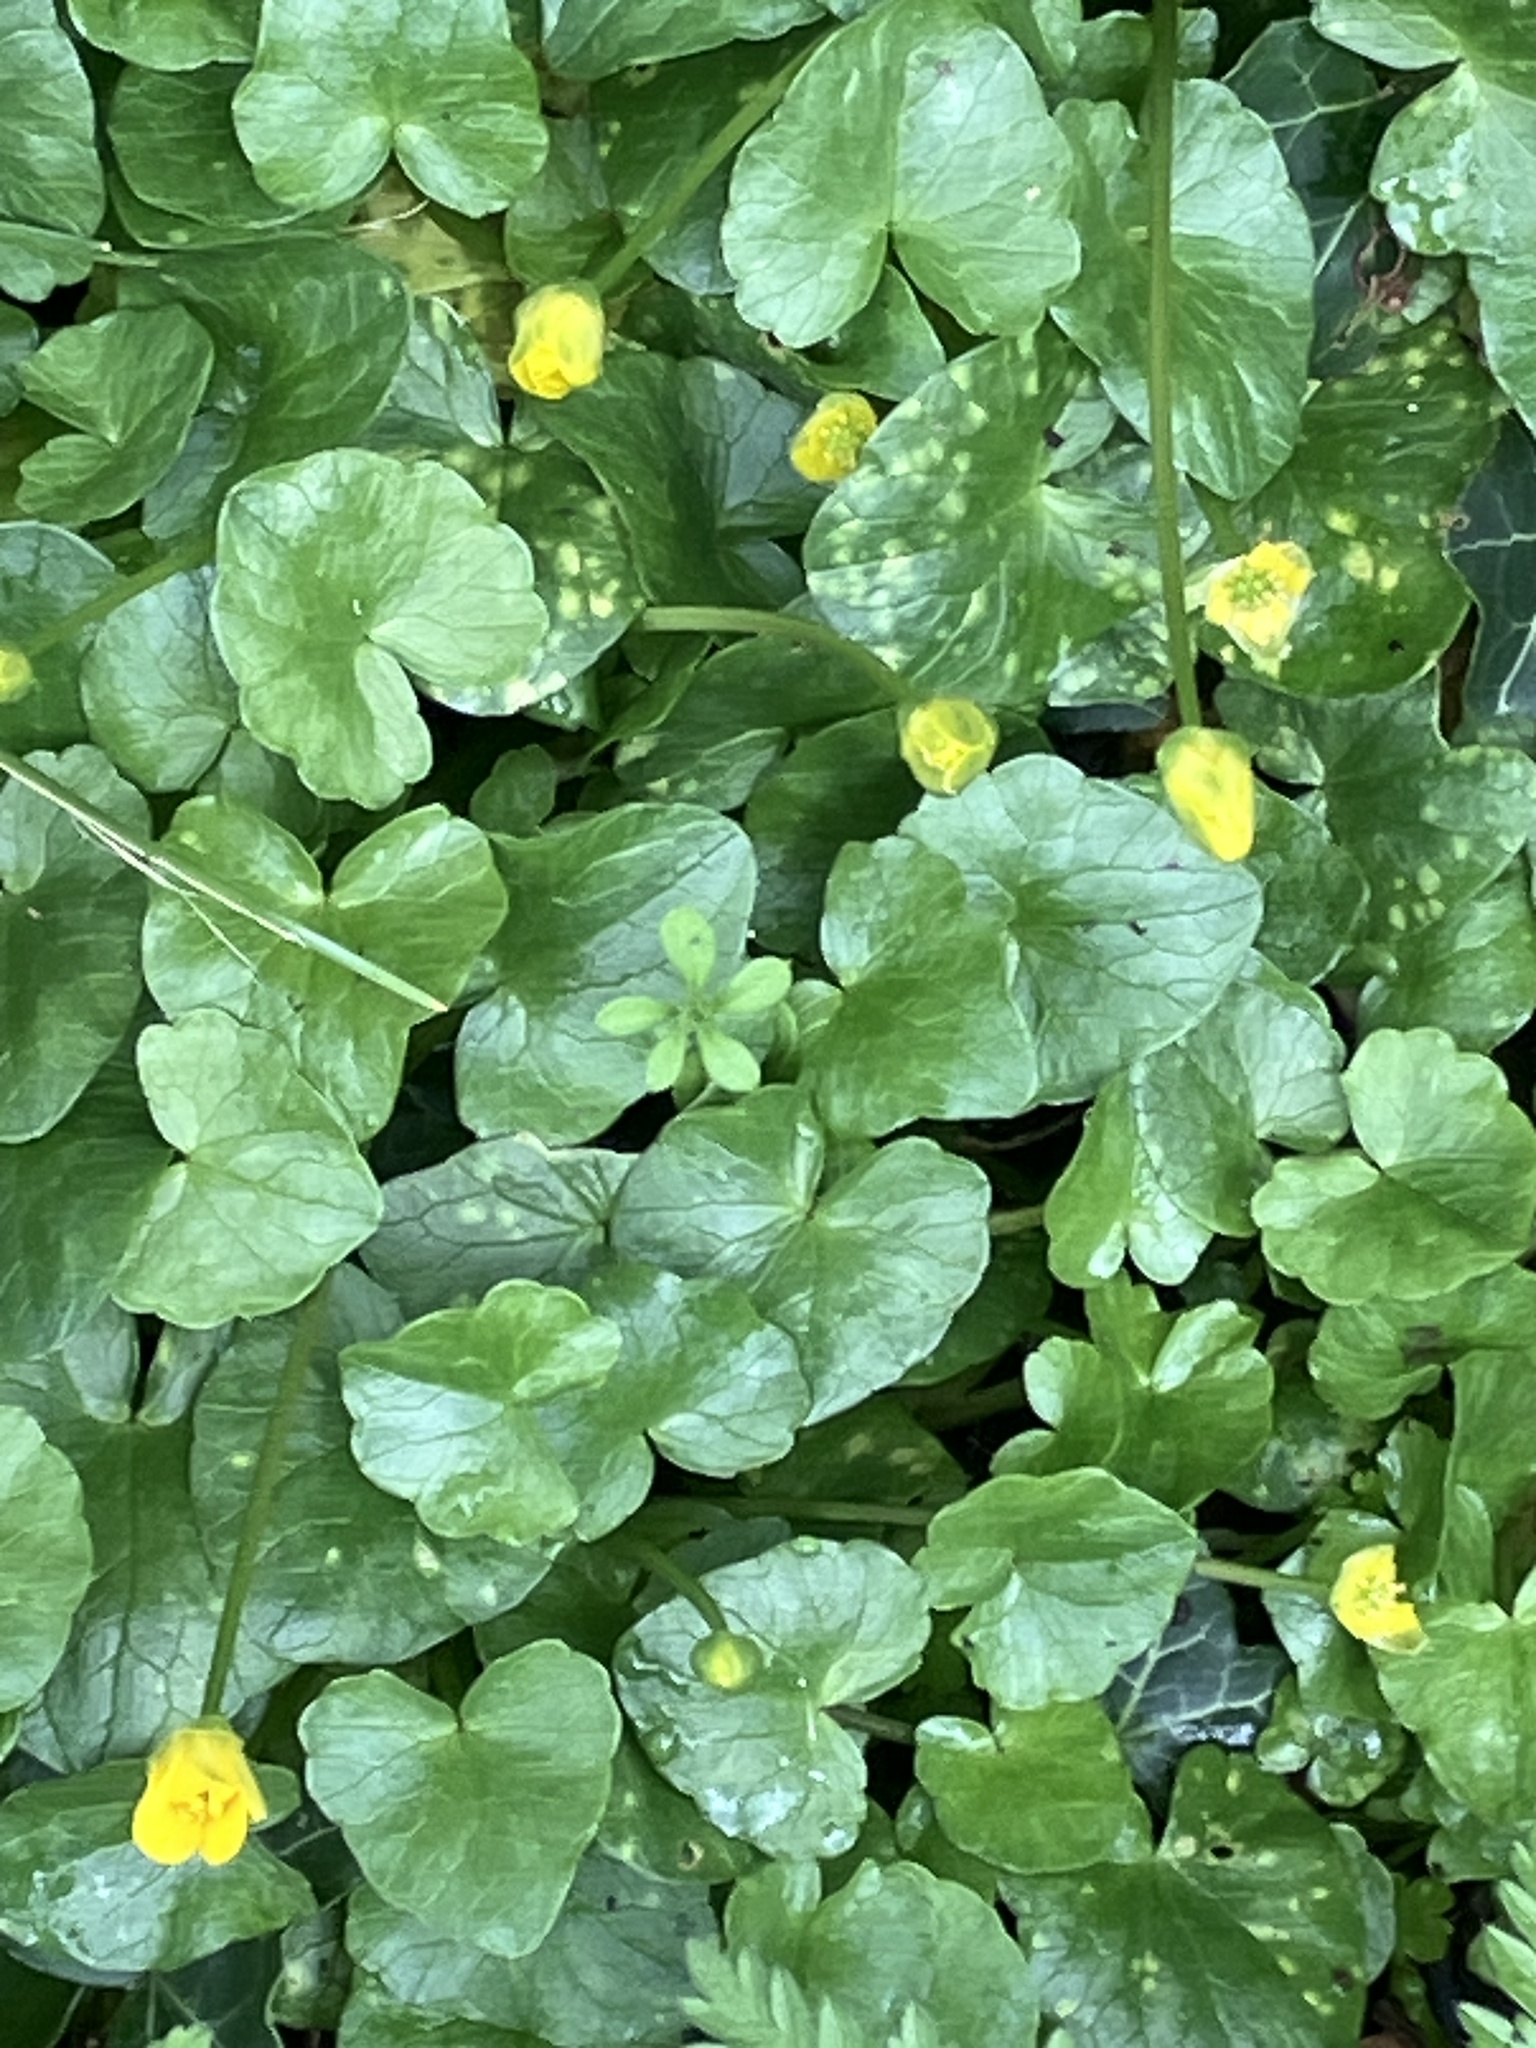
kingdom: Plantae
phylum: Tracheophyta
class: Magnoliopsida
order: Ranunculales
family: Ranunculaceae
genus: Ficaria
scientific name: Ficaria verna
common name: Lesser celandine
